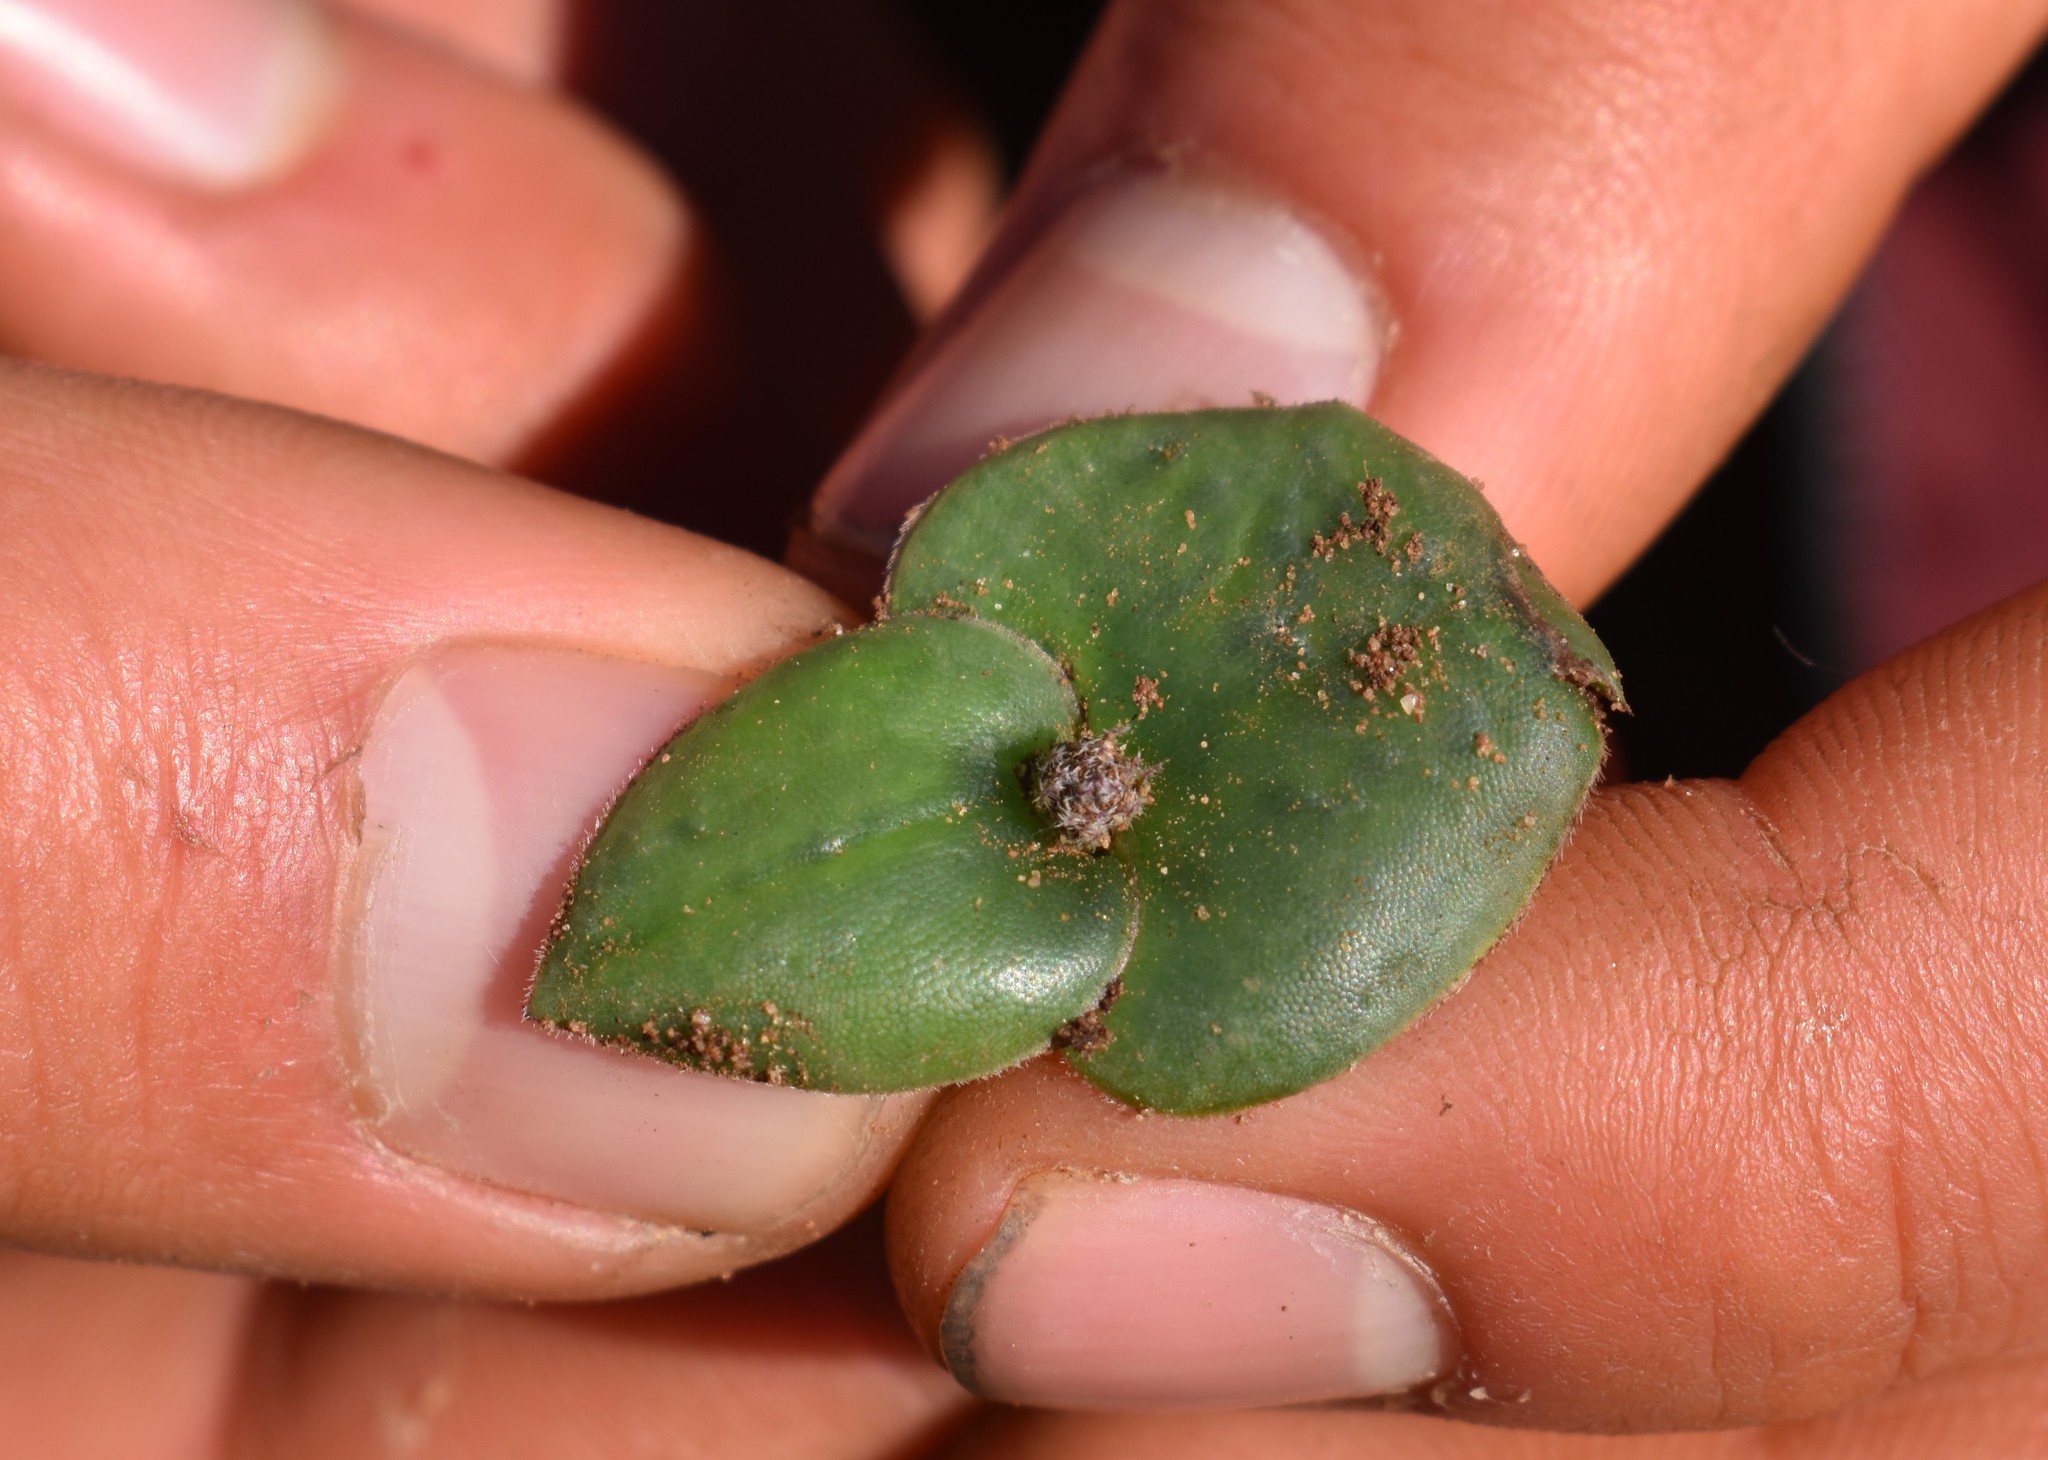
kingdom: Plantae
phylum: Tracheophyta
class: Liliopsida
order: Asparagales
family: Orchidaceae
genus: Holothrix
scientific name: Holothrix mundii
